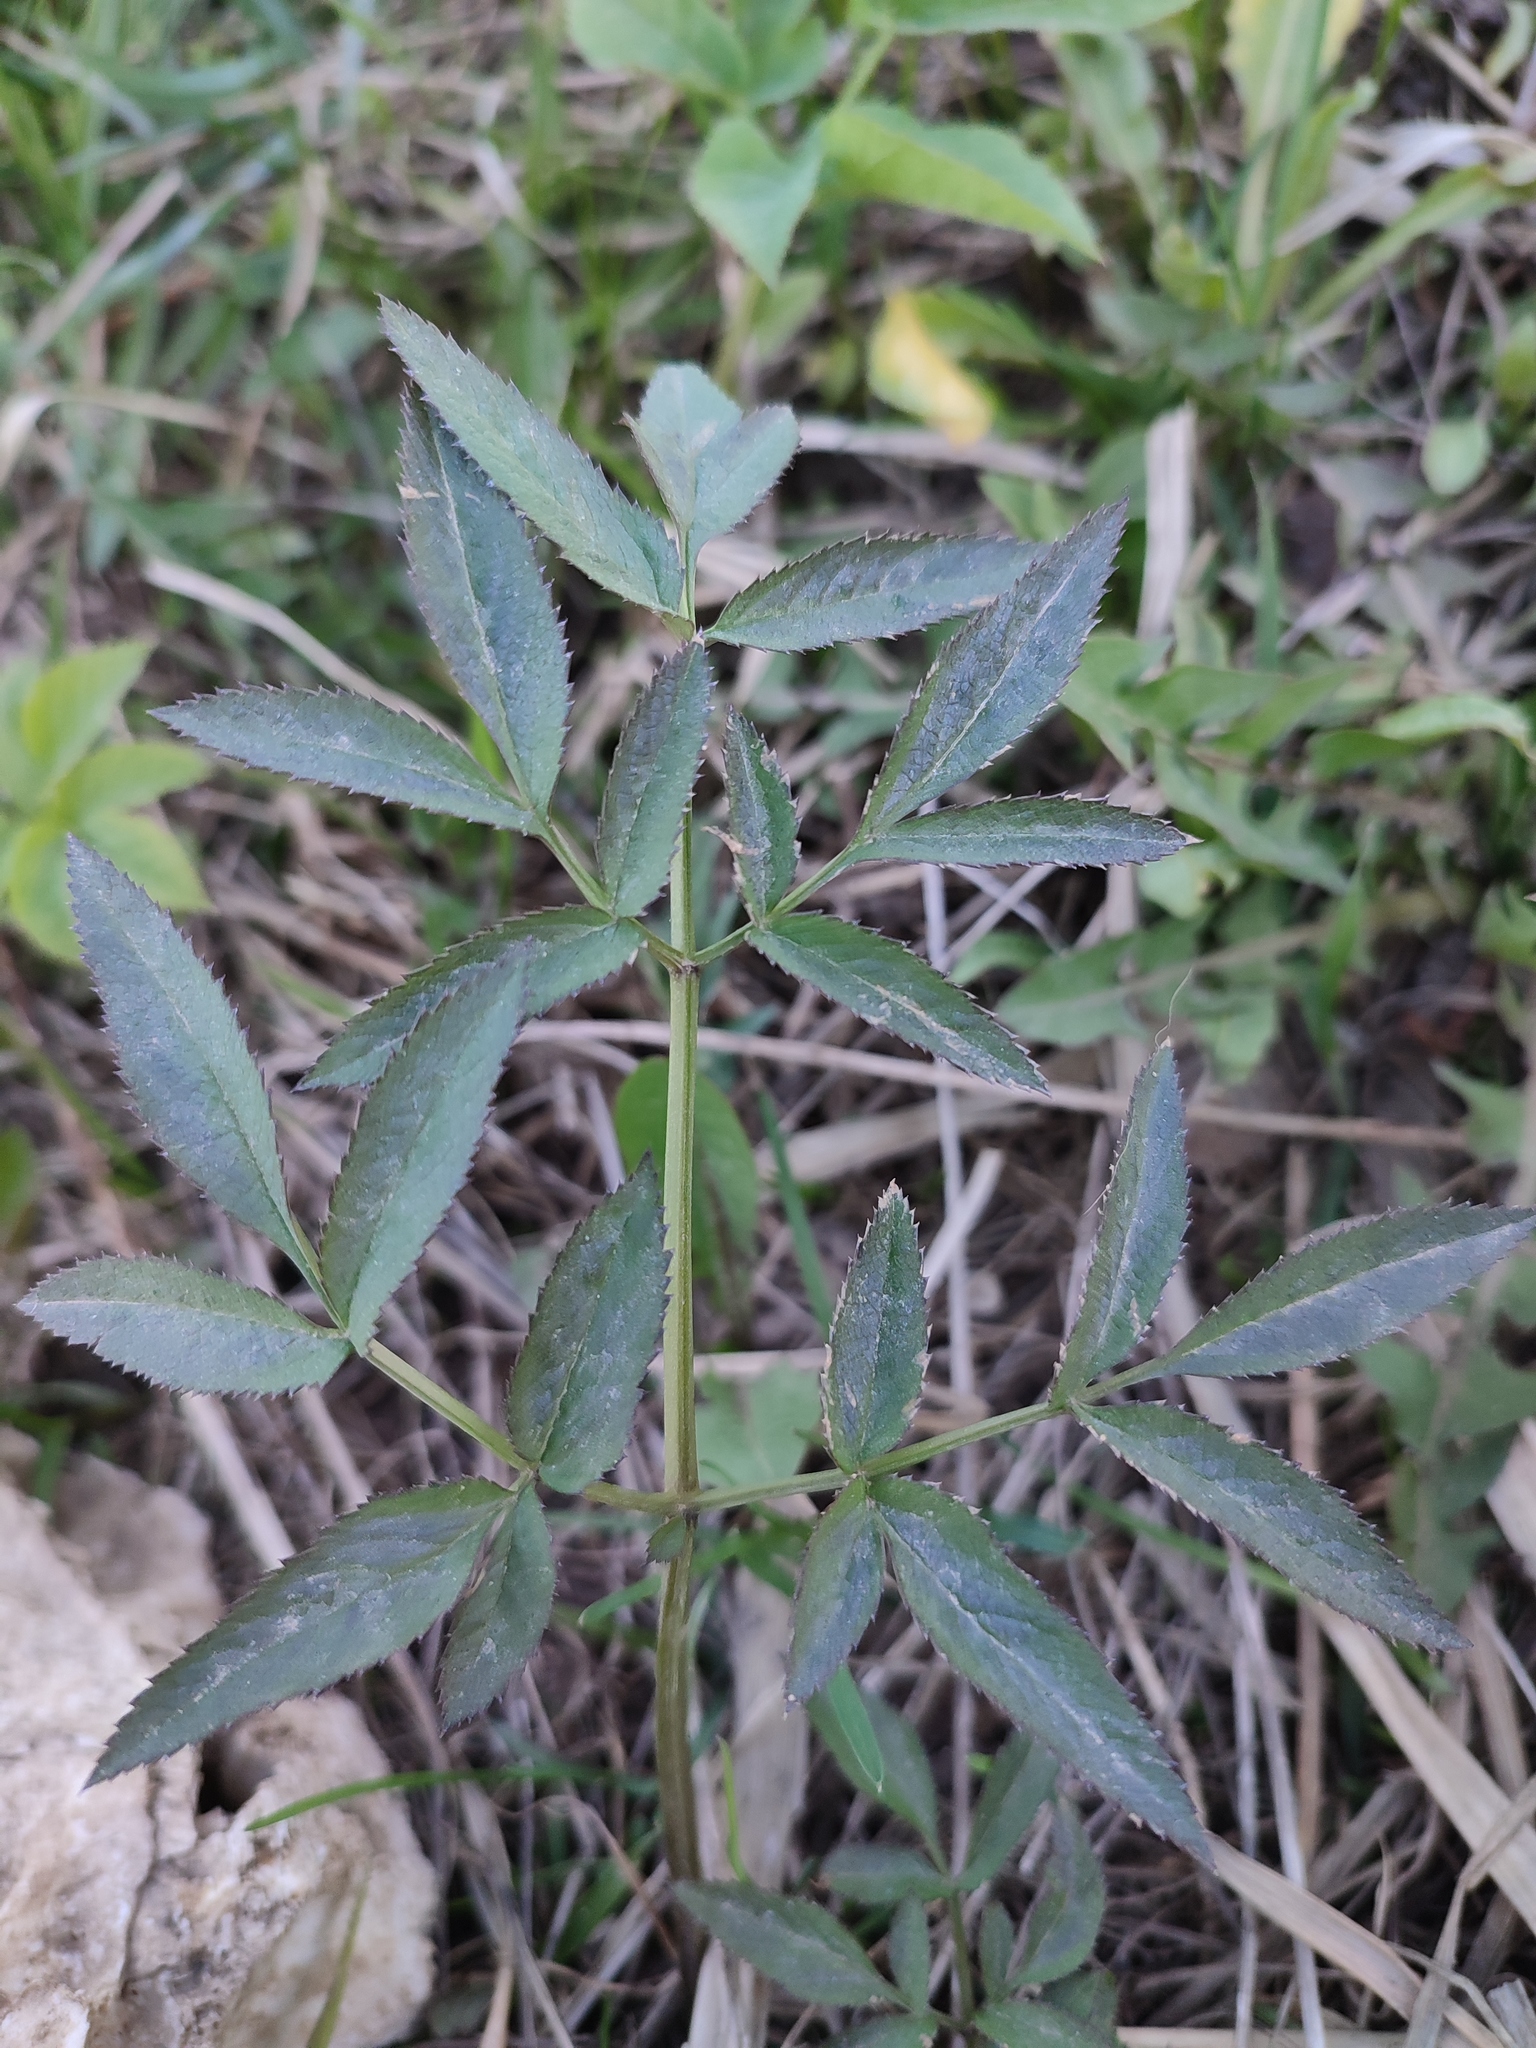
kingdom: Plantae
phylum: Tracheophyta
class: Magnoliopsida
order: Apiales
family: Apiaceae
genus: Angelica
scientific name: Angelica sylvestris
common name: Wild angelica
